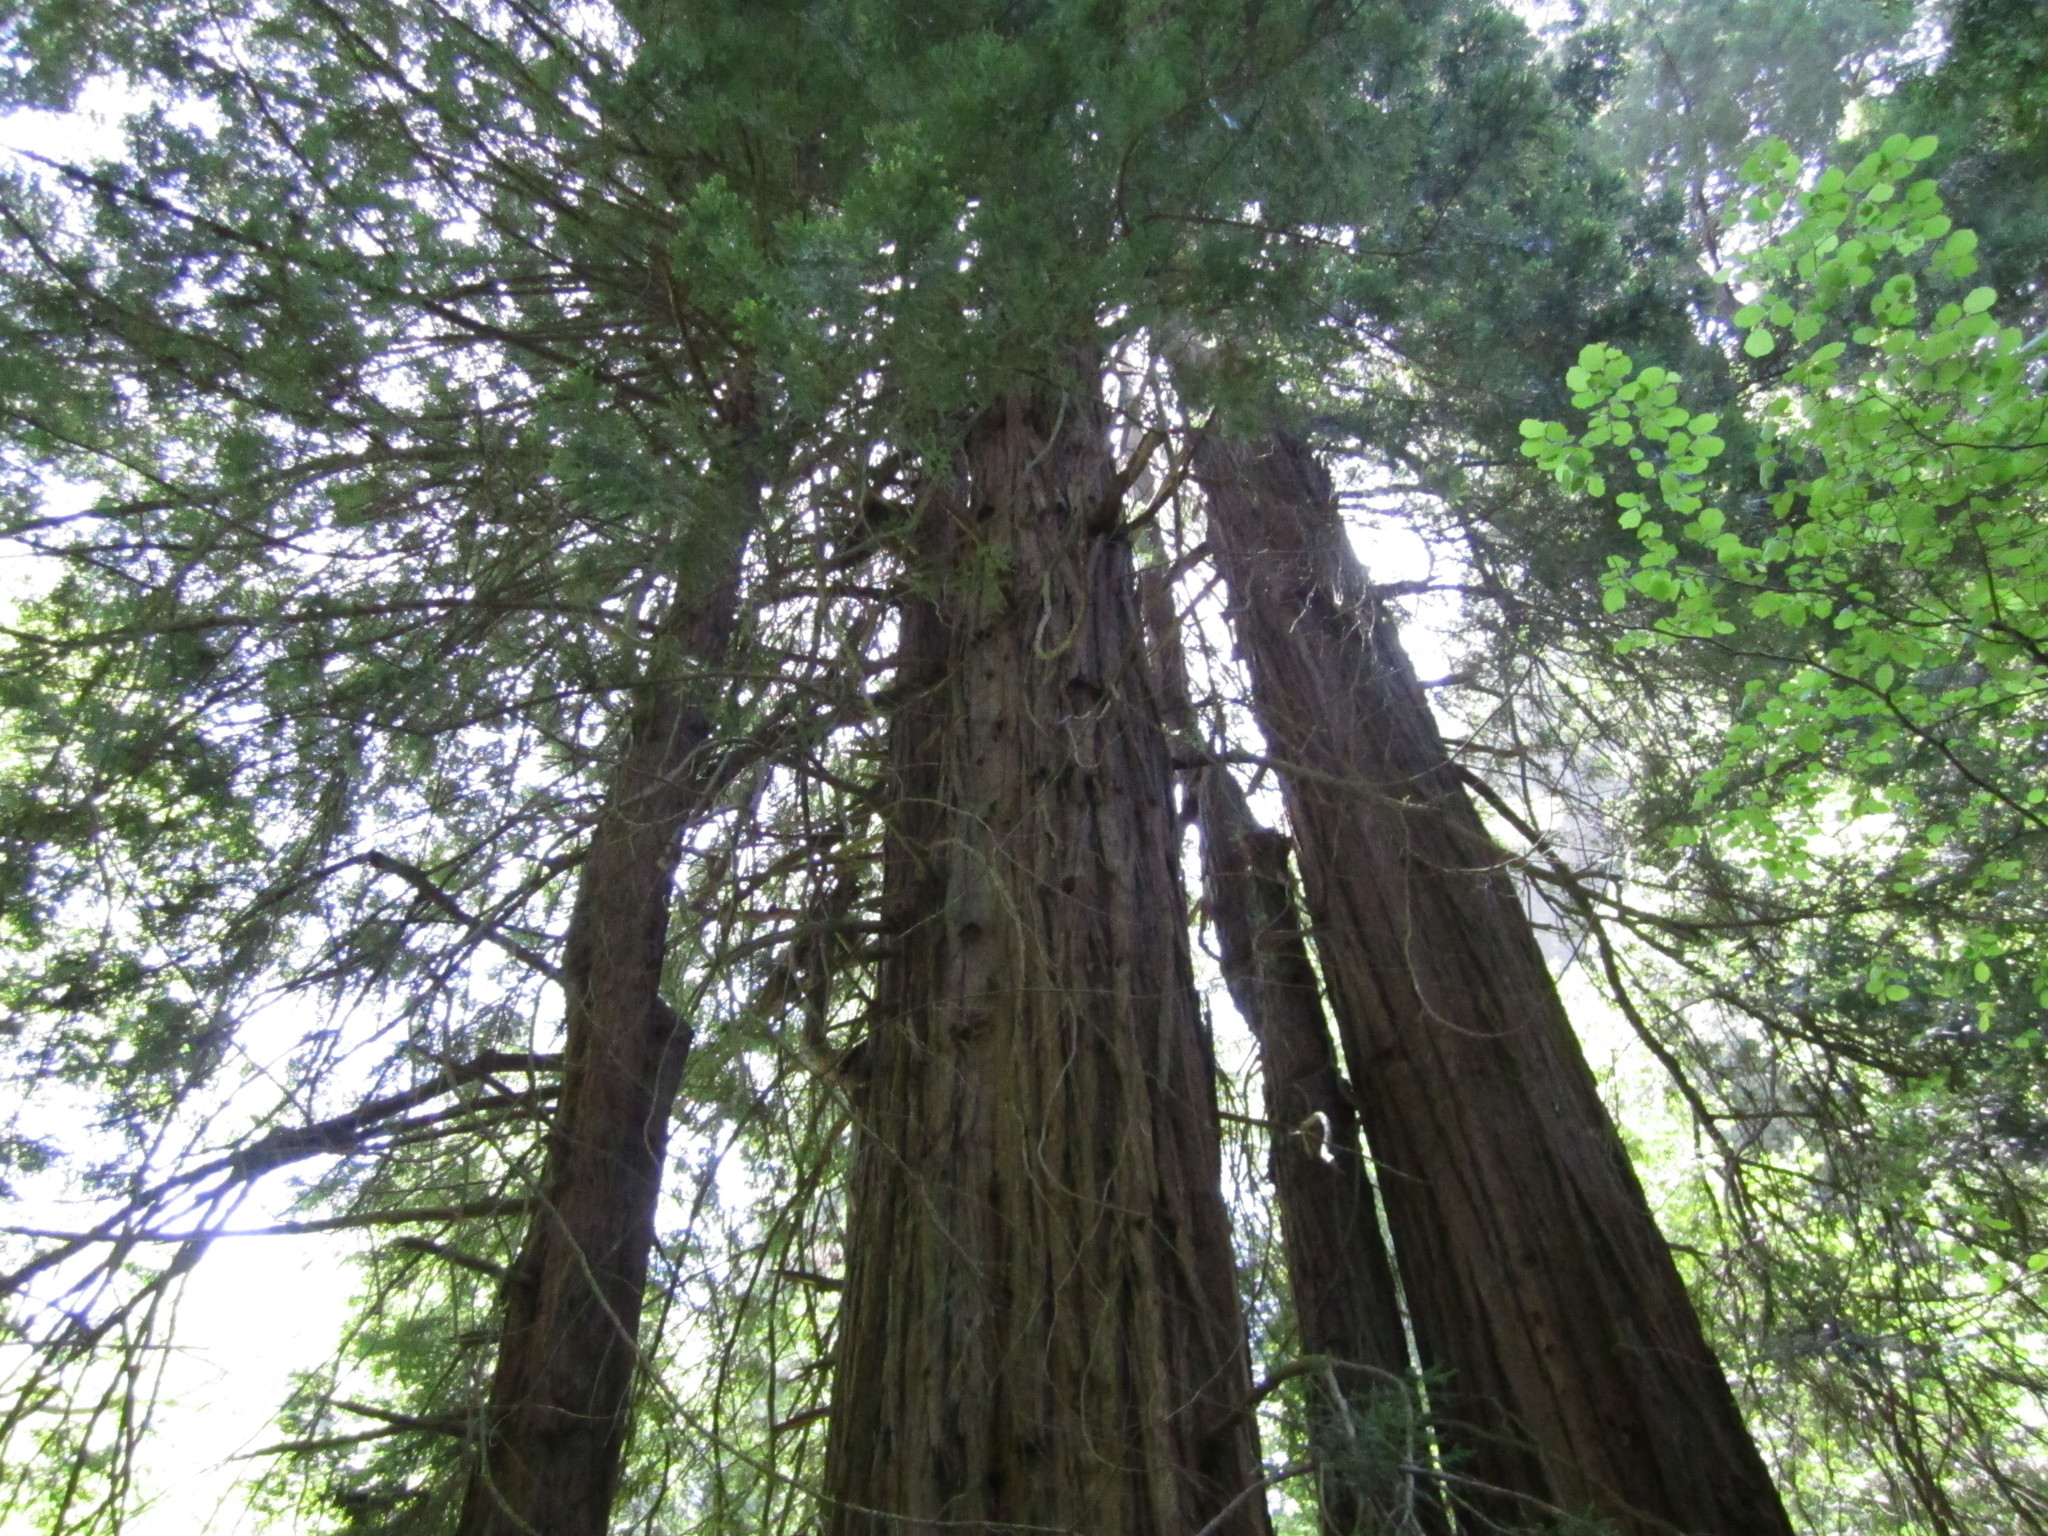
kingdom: Plantae
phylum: Tracheophyta
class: Pinopsida
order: Pinales
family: Cupressaceae
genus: Sequoia
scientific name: Sequoia sempervirens
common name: Coast redwood
